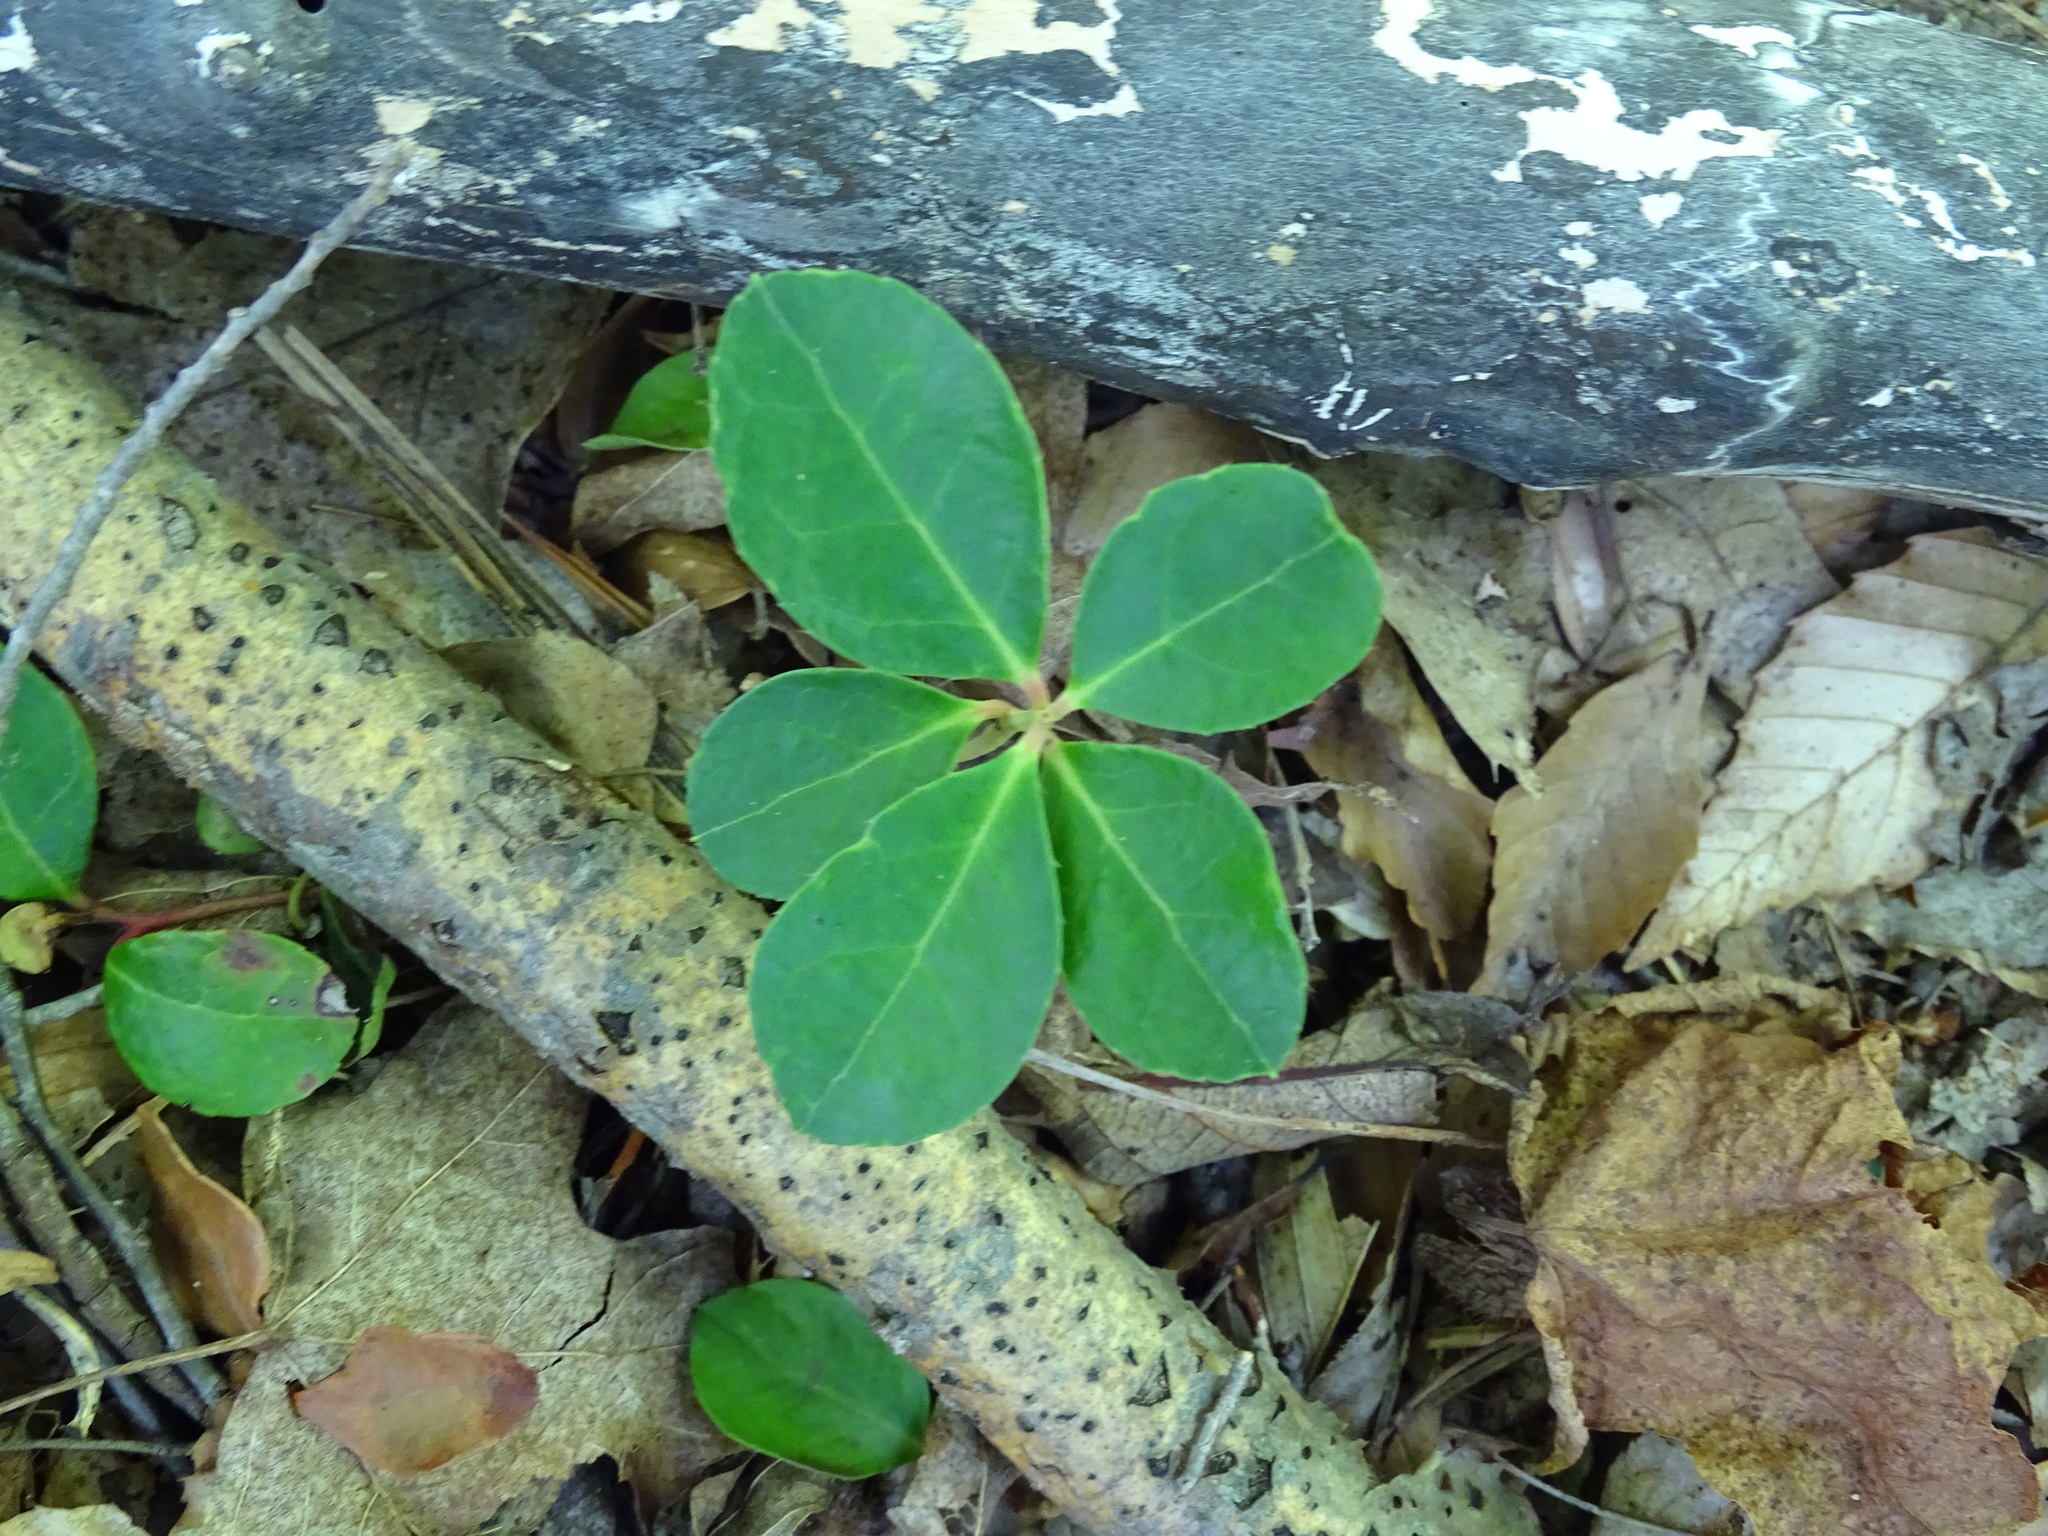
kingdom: Plantae
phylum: Tracheophyta
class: Magnoliopsida
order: Ericales
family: Ericaceae
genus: Gaultheria
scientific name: Gaultheria procumbens
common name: Checkerberry
